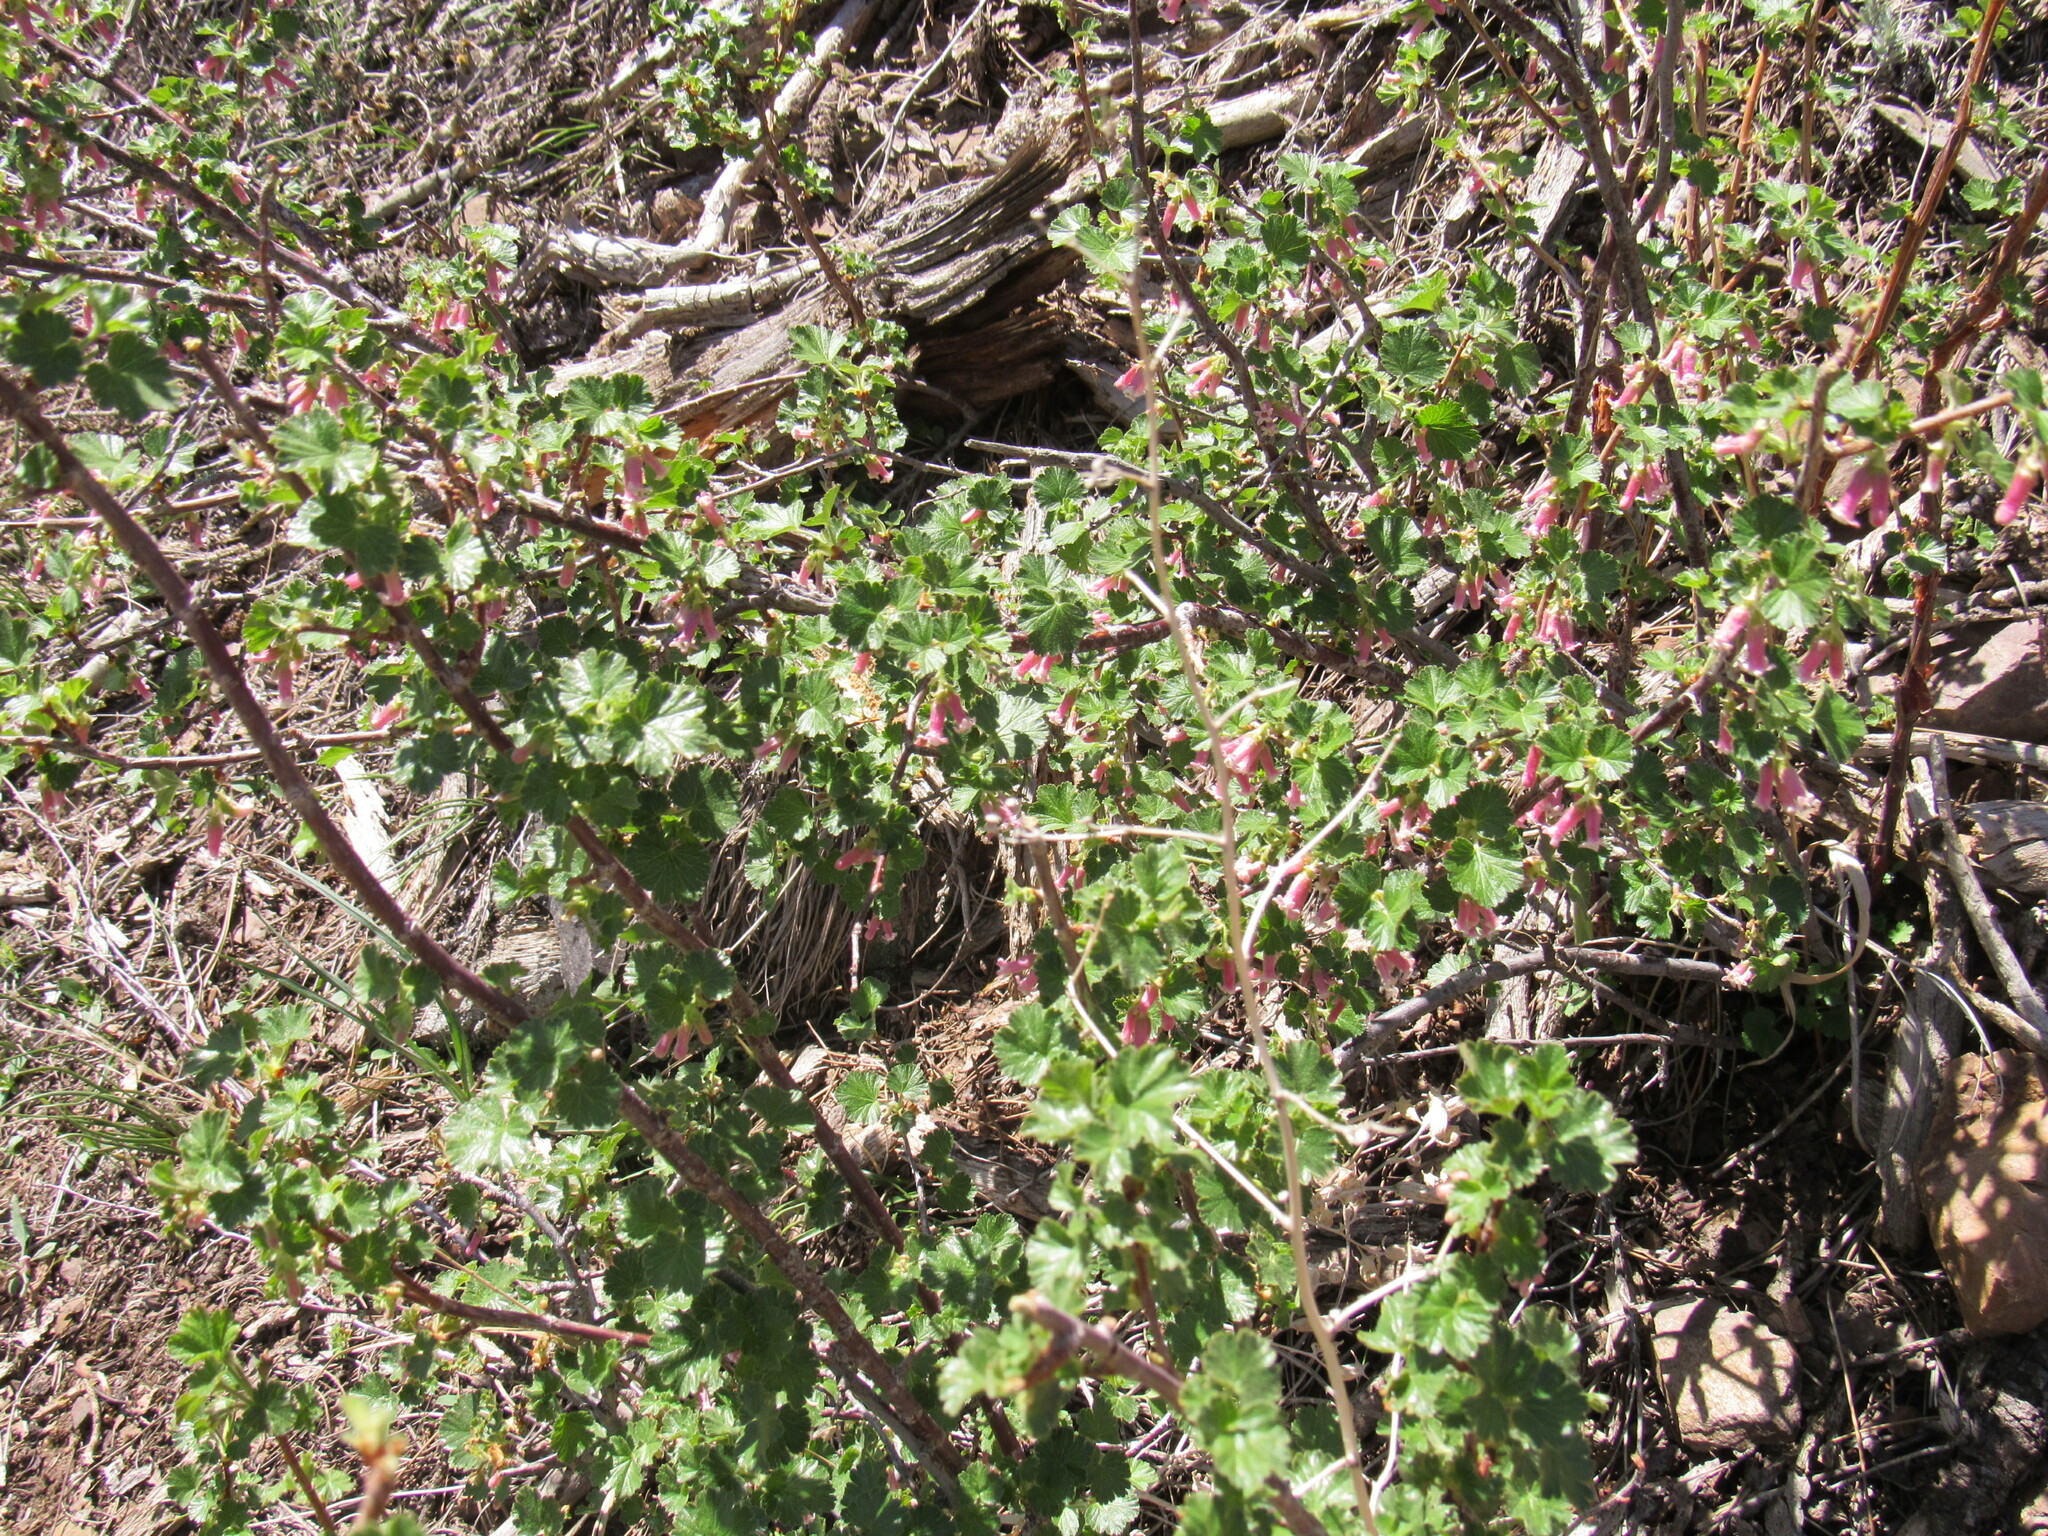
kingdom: Plantae
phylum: Tracheophyta
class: Magnoliopsida
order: Saxifragales
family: Grossulariaceae
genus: Ribes
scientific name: Ribes cereum
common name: Wax currant
